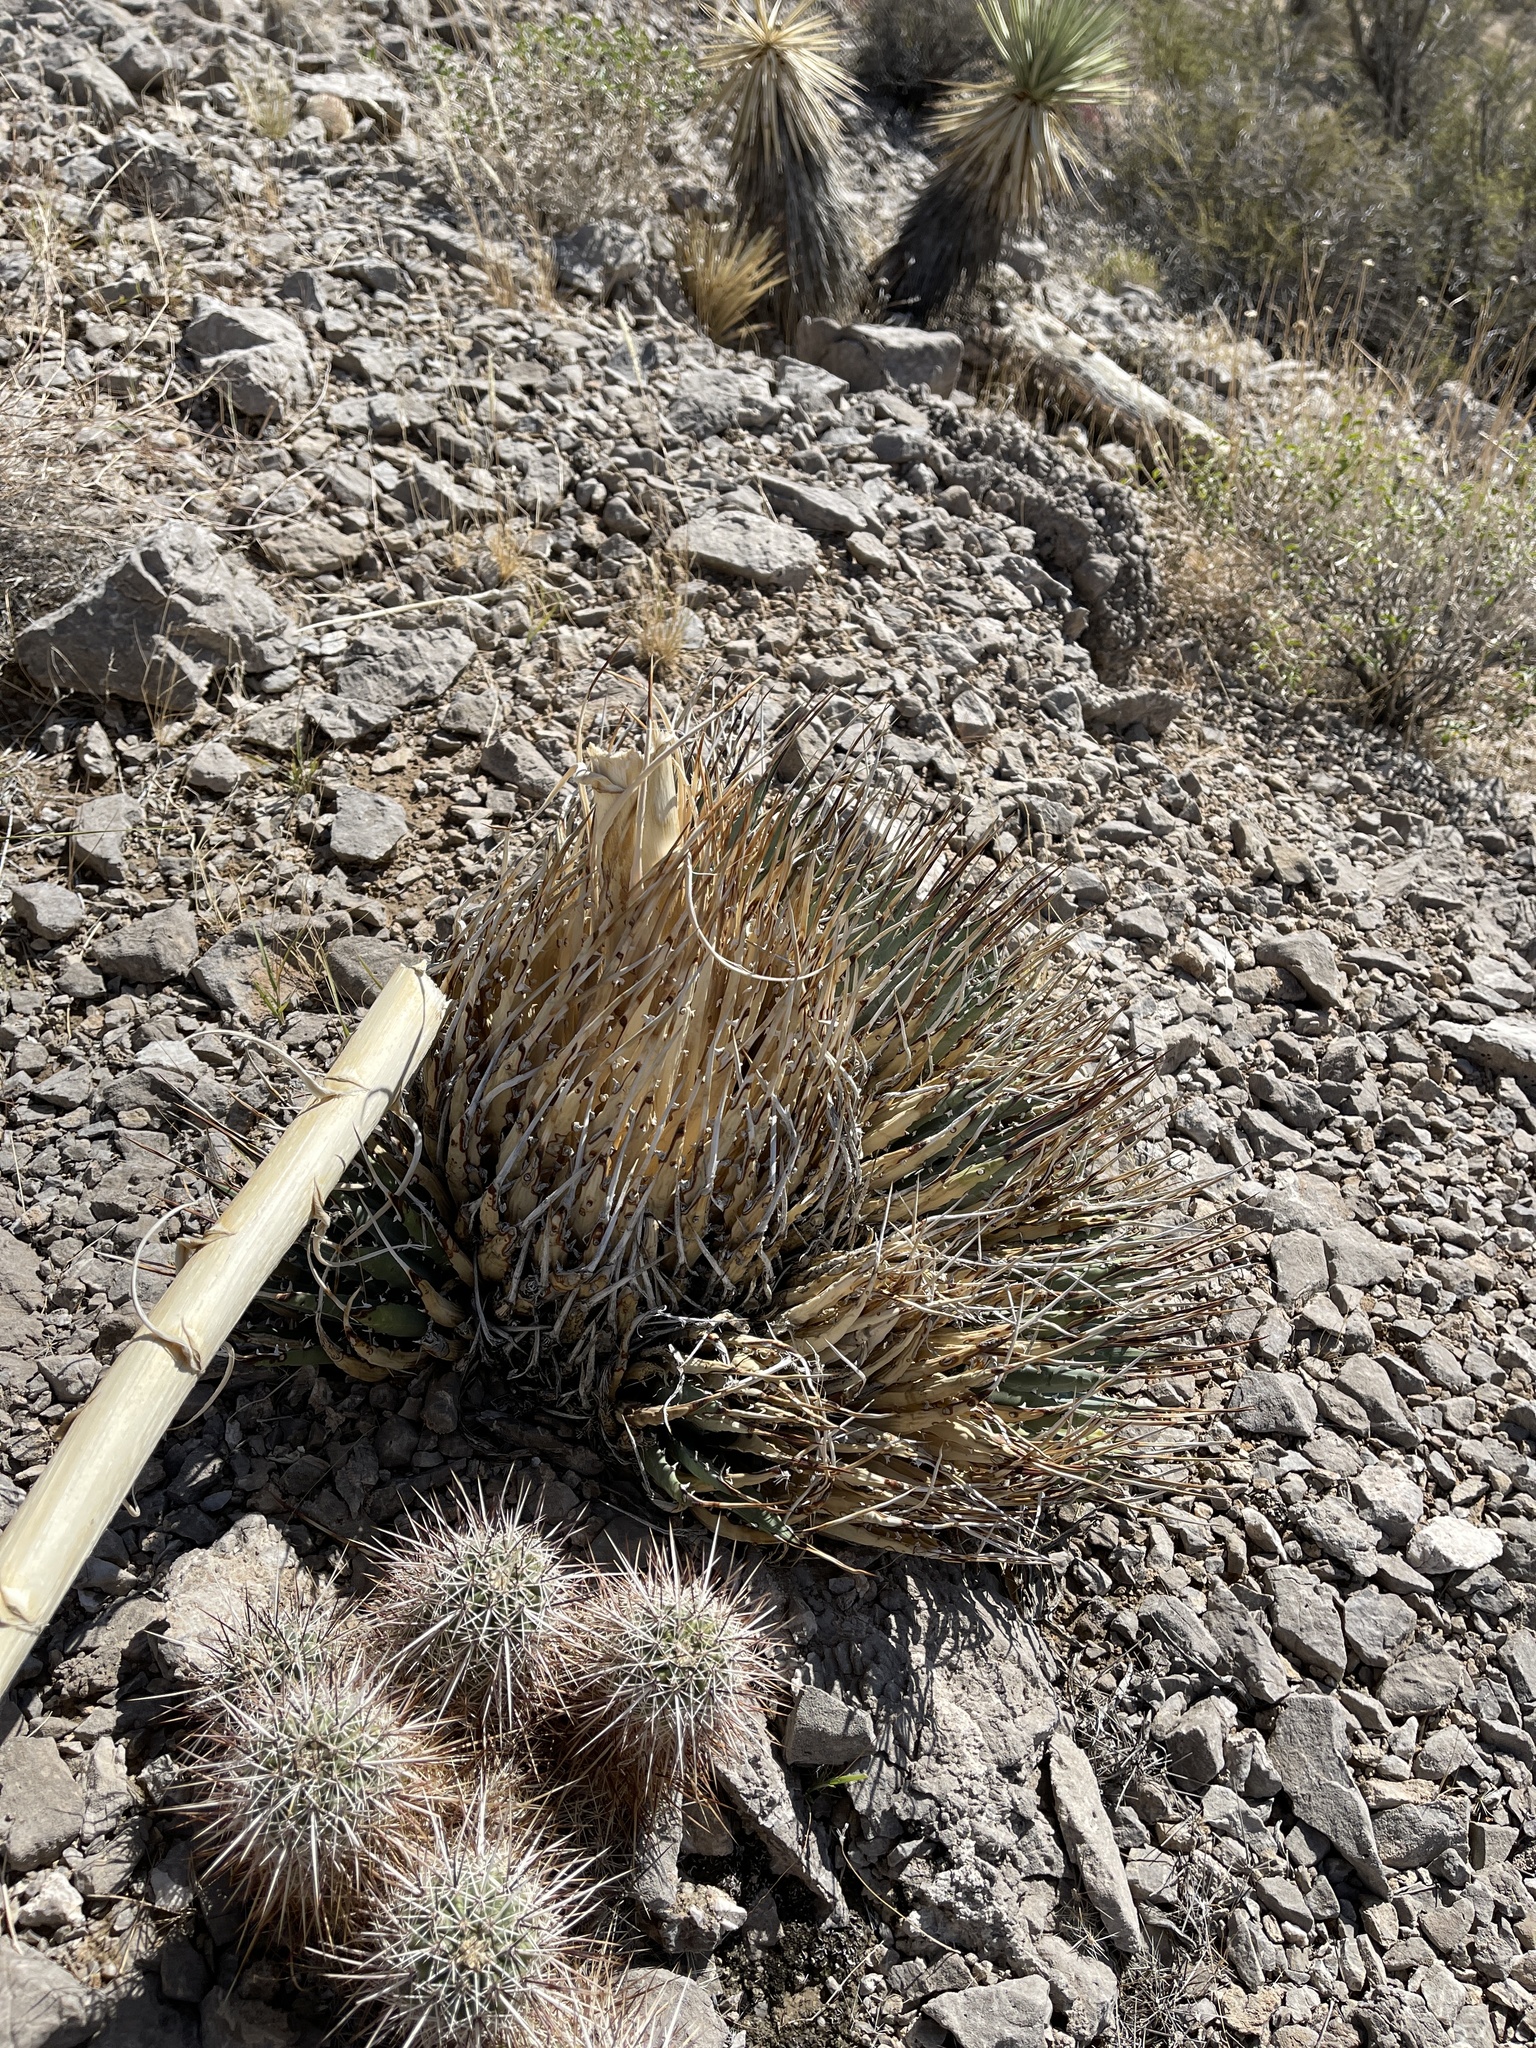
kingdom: Plantae
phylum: Tracheophyta
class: Liliopsida
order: Asparagales
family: Asparagaceae
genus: Agave
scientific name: Agave utahensis
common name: Utah agave
